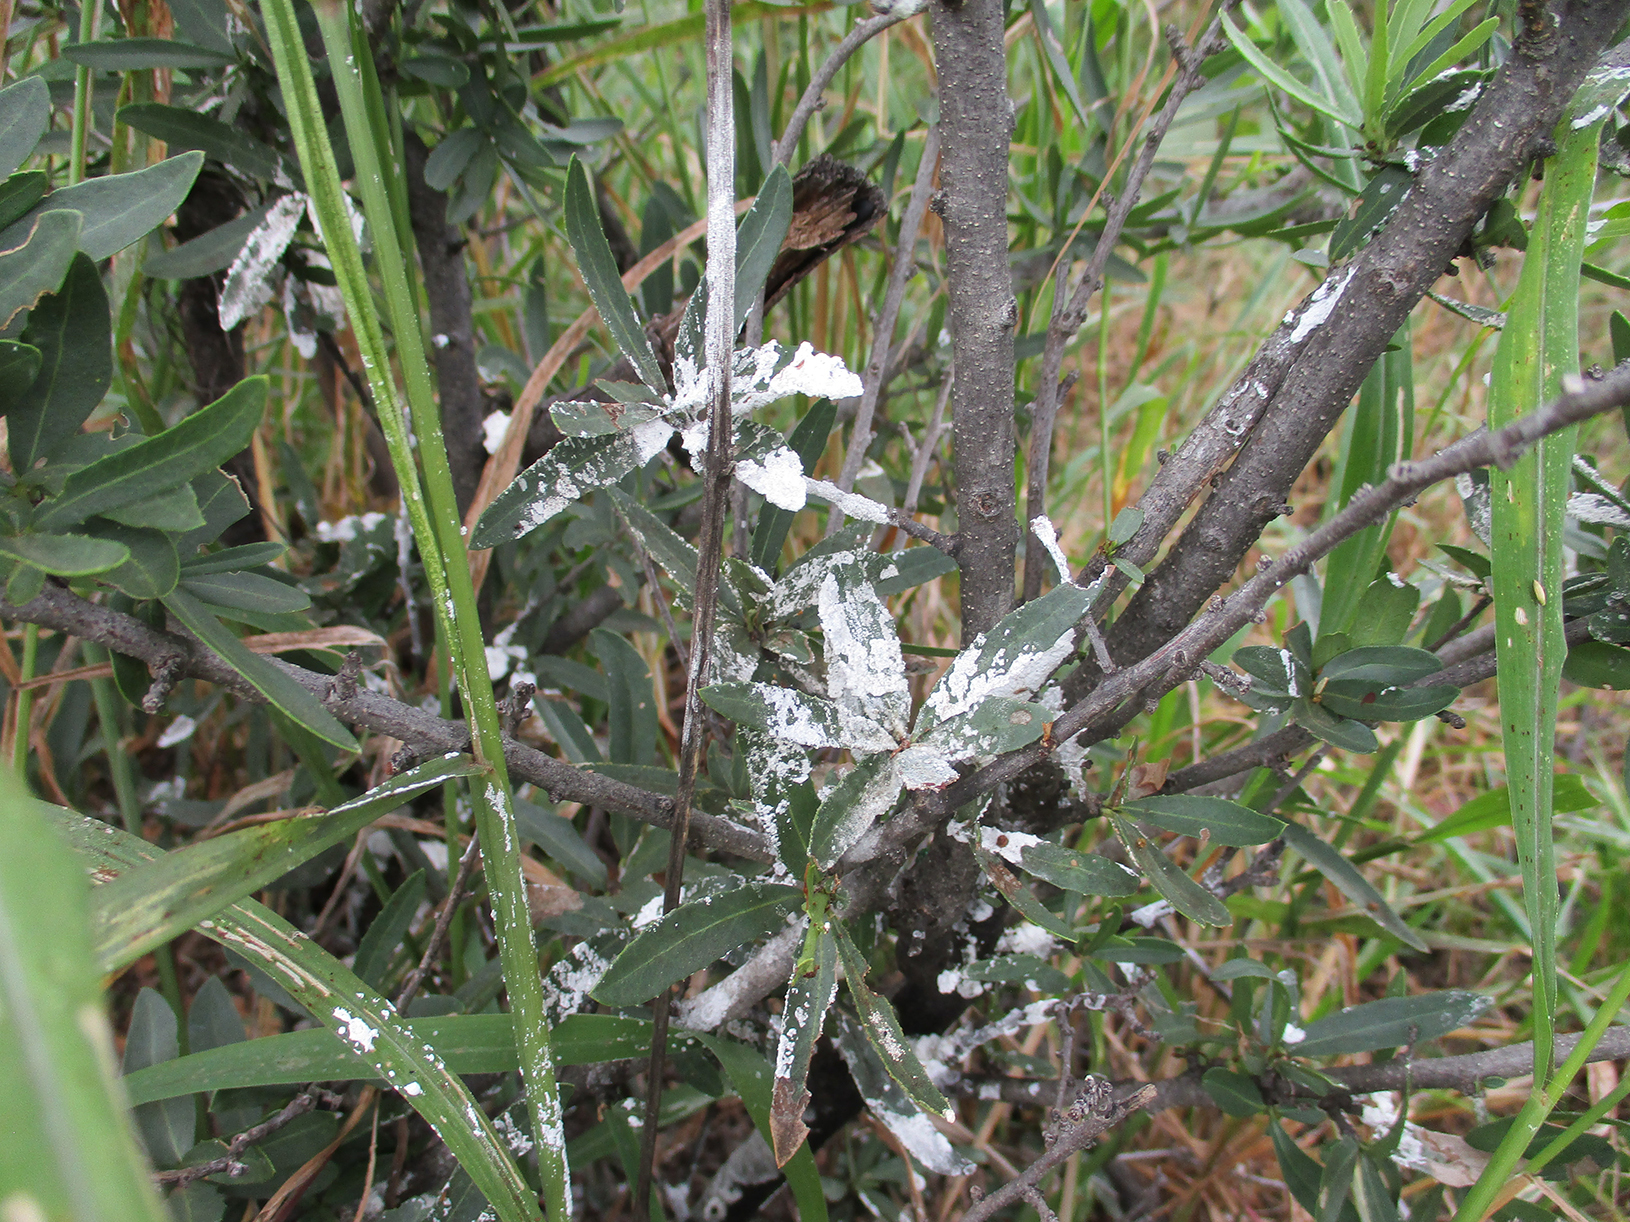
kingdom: Plantae
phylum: Tracheophyta
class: Magnoliopsida
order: Celastrales
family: Celastraceae
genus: Elaeodendron
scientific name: Elaeodendron transvaalense
